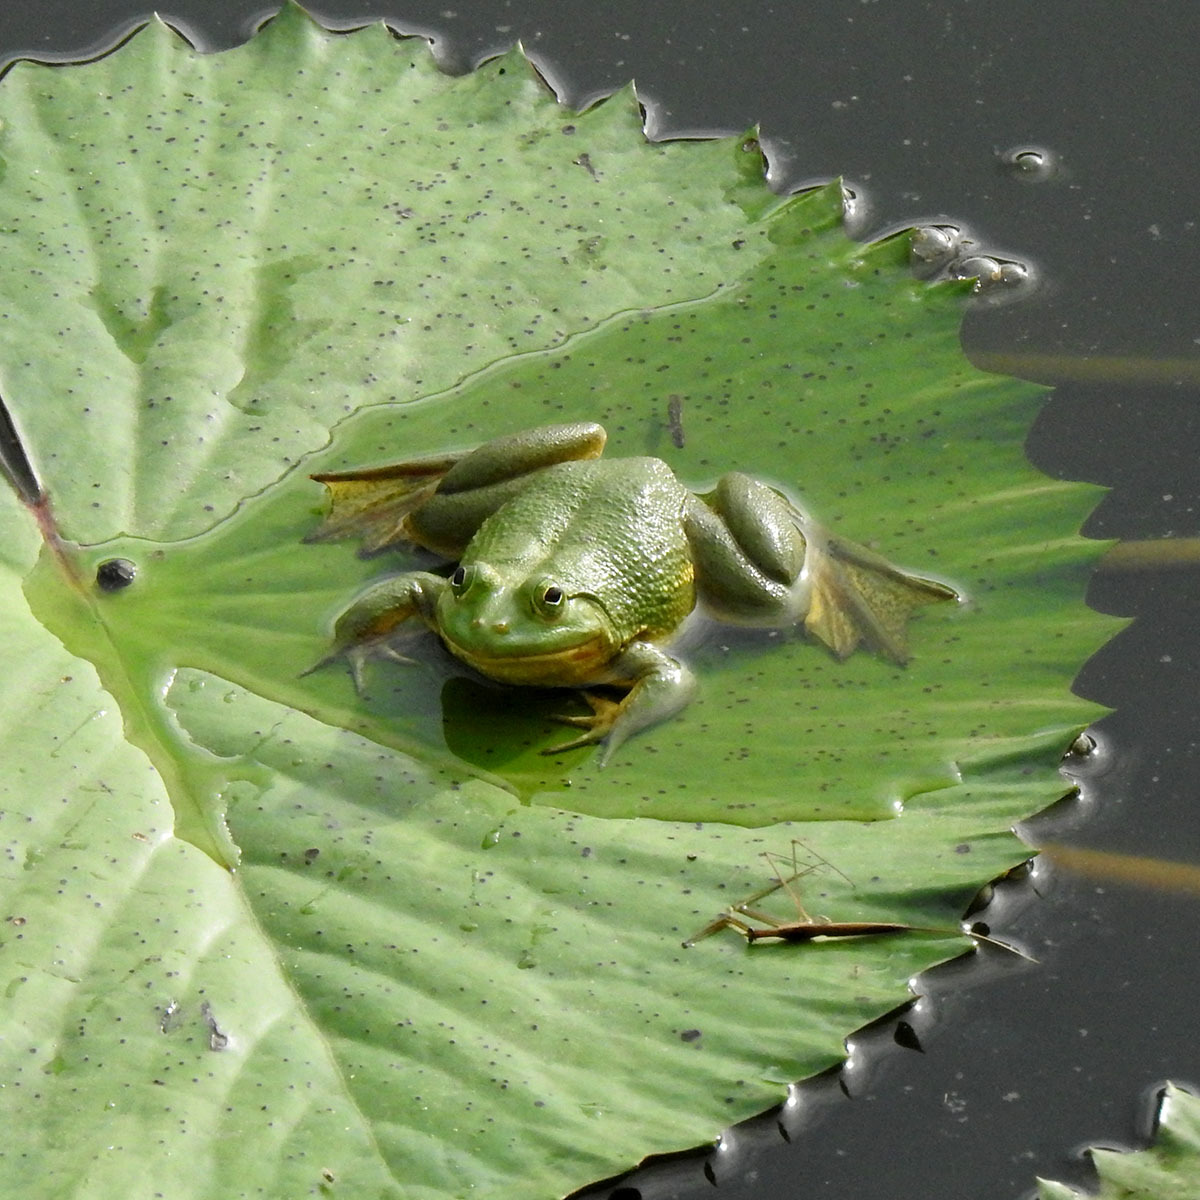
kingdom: Animalia
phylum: Chordata
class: Amphibia
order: Anura
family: Dicroglossidae
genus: Euphlyctis
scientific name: Euphlyctis hexadactylus
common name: Indian green frog
